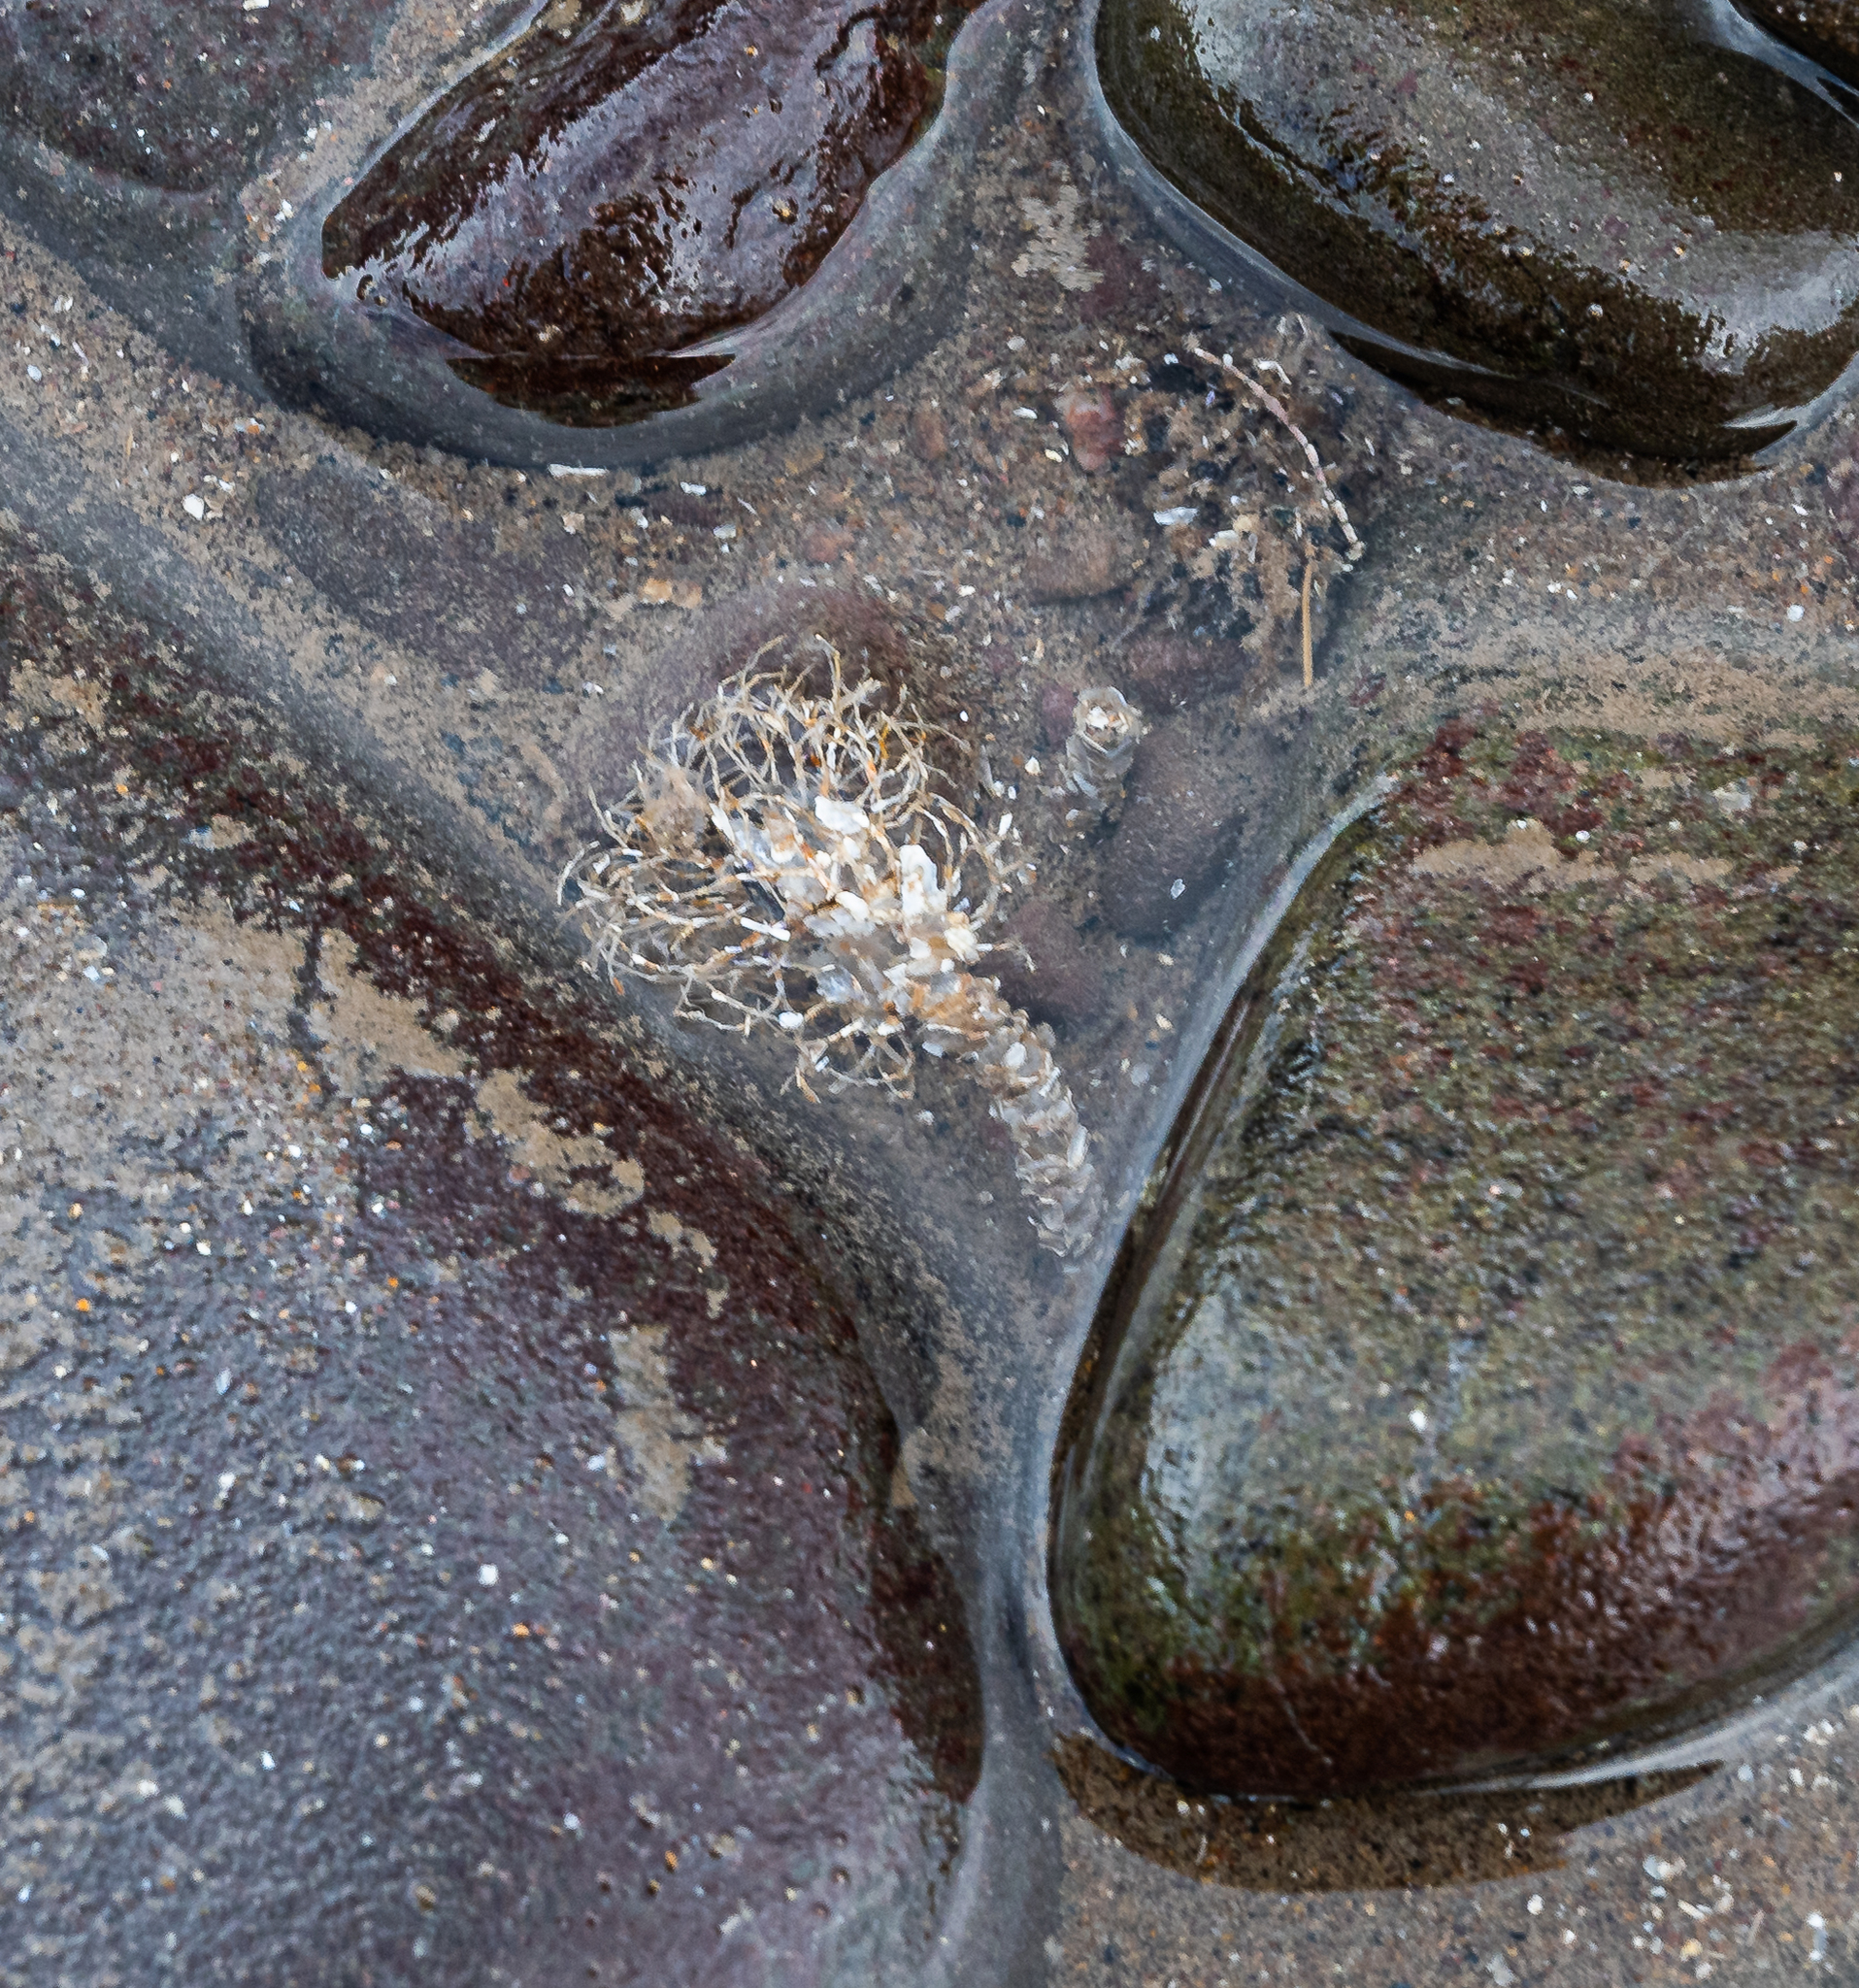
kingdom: Animalia
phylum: Annelida
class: Polychaeta
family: Terebellidae
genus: Lanice
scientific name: Lanice conchilega
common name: Sand mason
